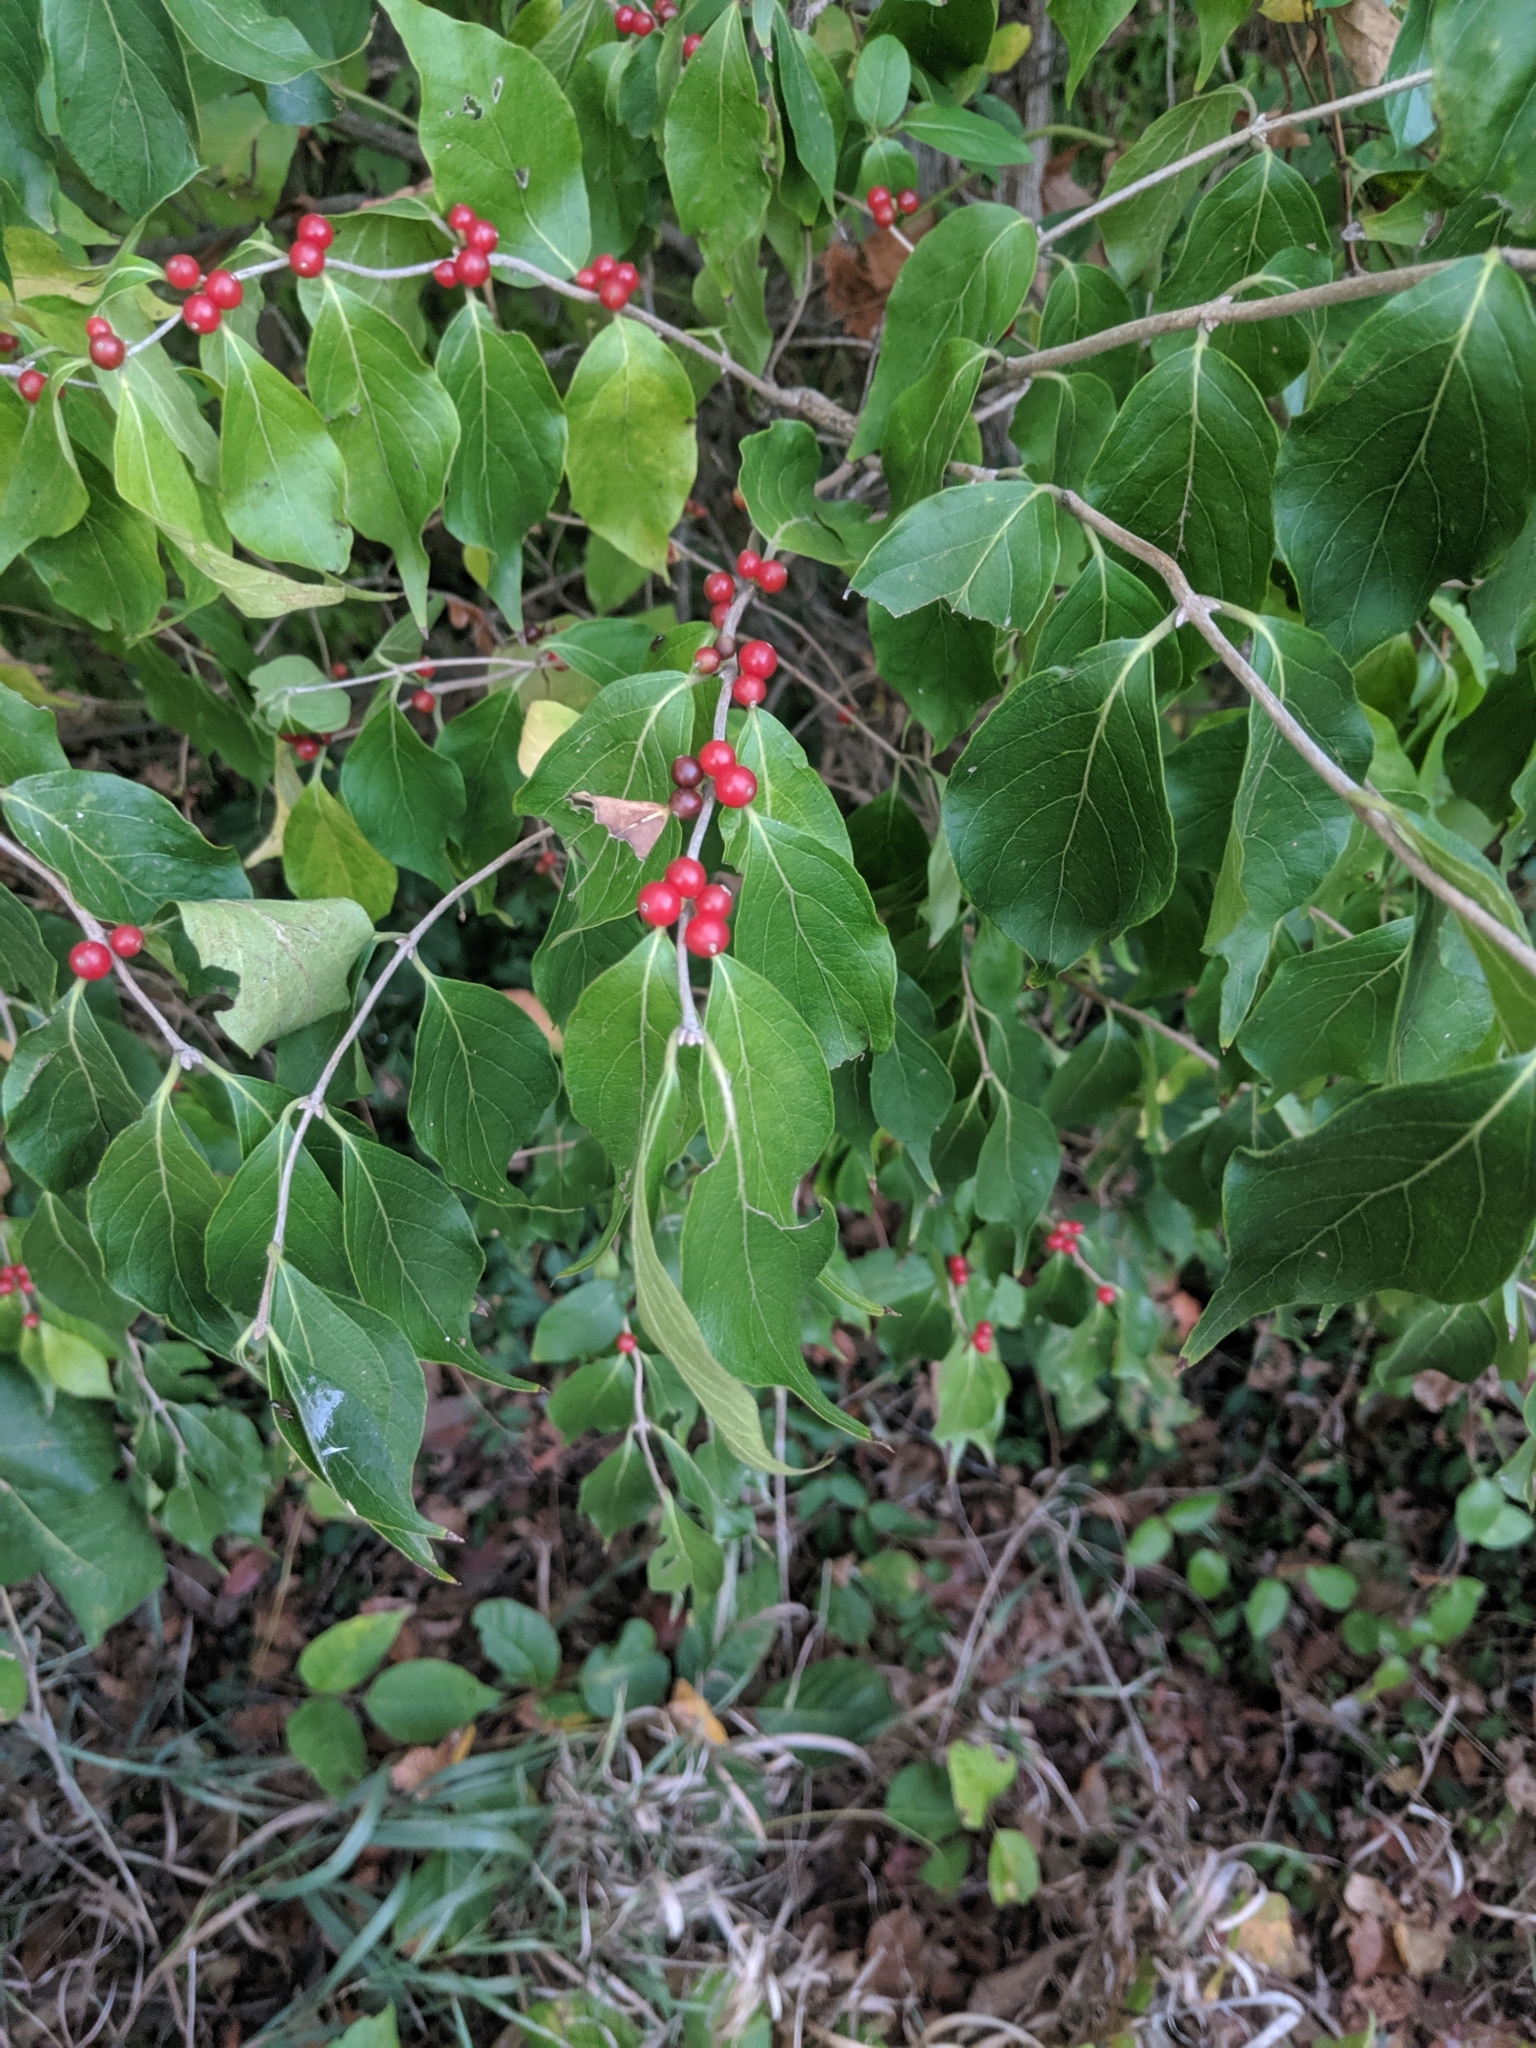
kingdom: Plantae
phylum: Tracheophyta
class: Magnoliopsida
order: Dipsacales
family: Caprifoliaceae
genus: Lonicera
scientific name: Lonicera maackii
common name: Amur honeysuckle
